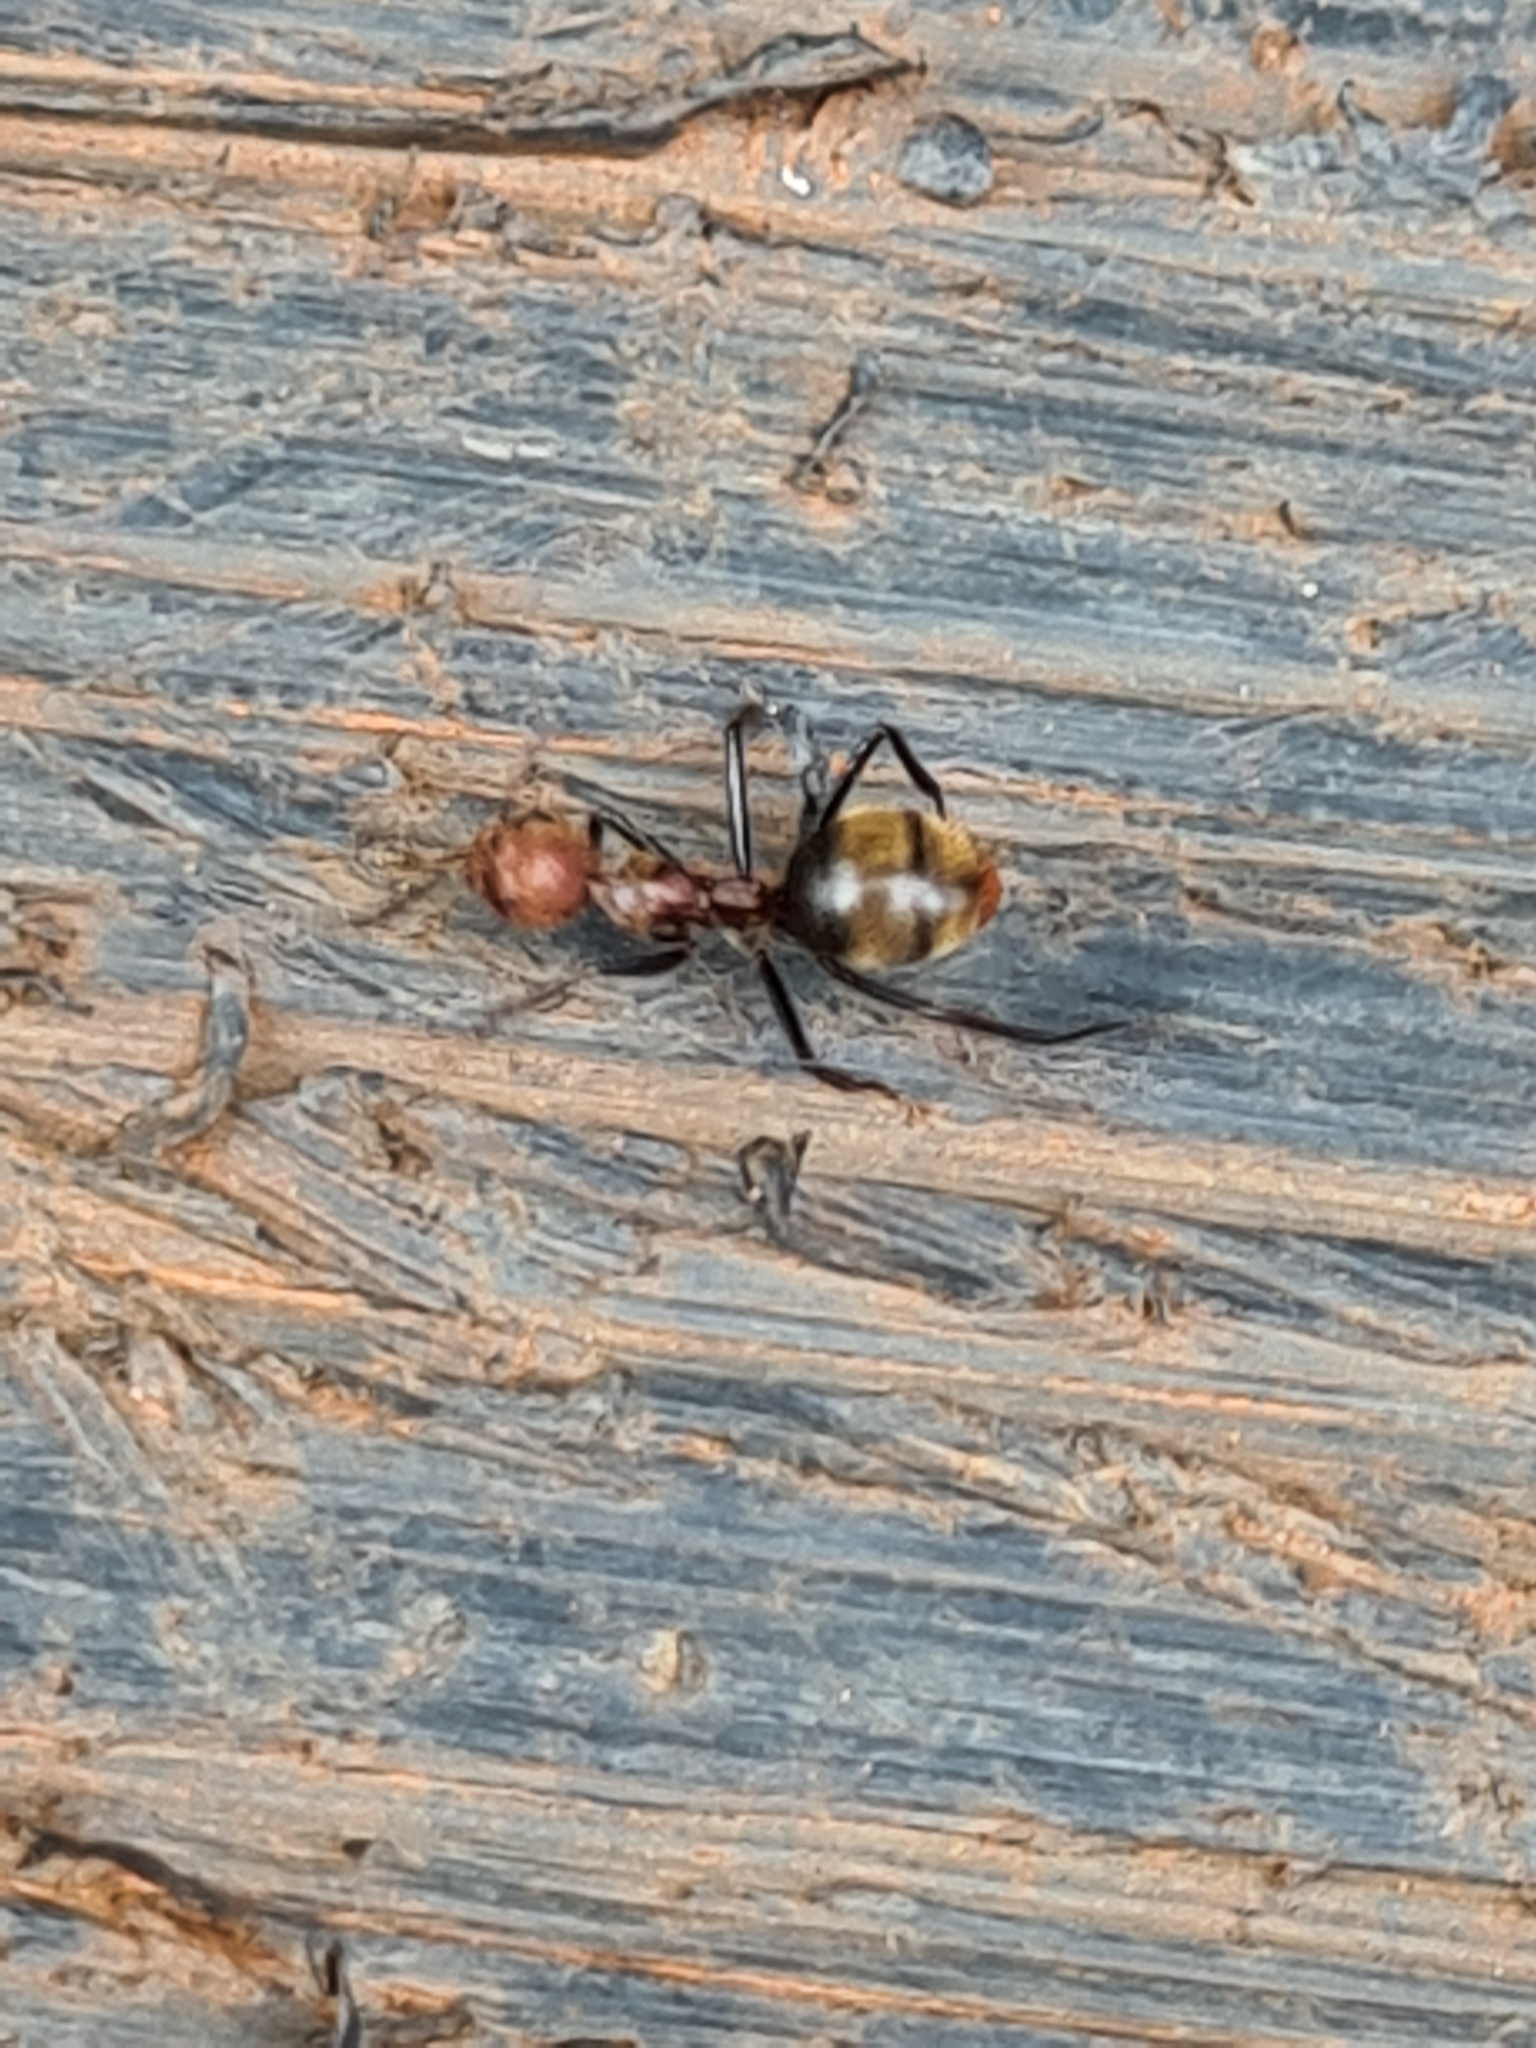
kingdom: Animalia
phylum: Arthropoda
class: Insecta
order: Hymenoptera
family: Formicidae
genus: Dolichoderus
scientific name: Dolichoderus quadridenticulatus
